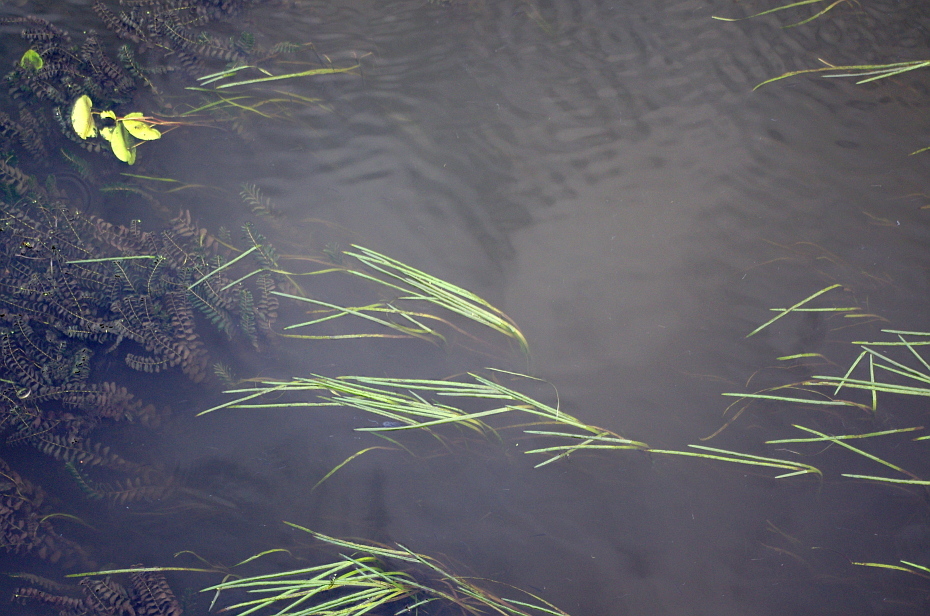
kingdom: Plantae
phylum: Tracheophyta
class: Liliopsida
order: Alismatales
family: Potamogetonaceae
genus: Potamogeton
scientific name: Potamogeton perfoliatus
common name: Perfoliate pondweed
